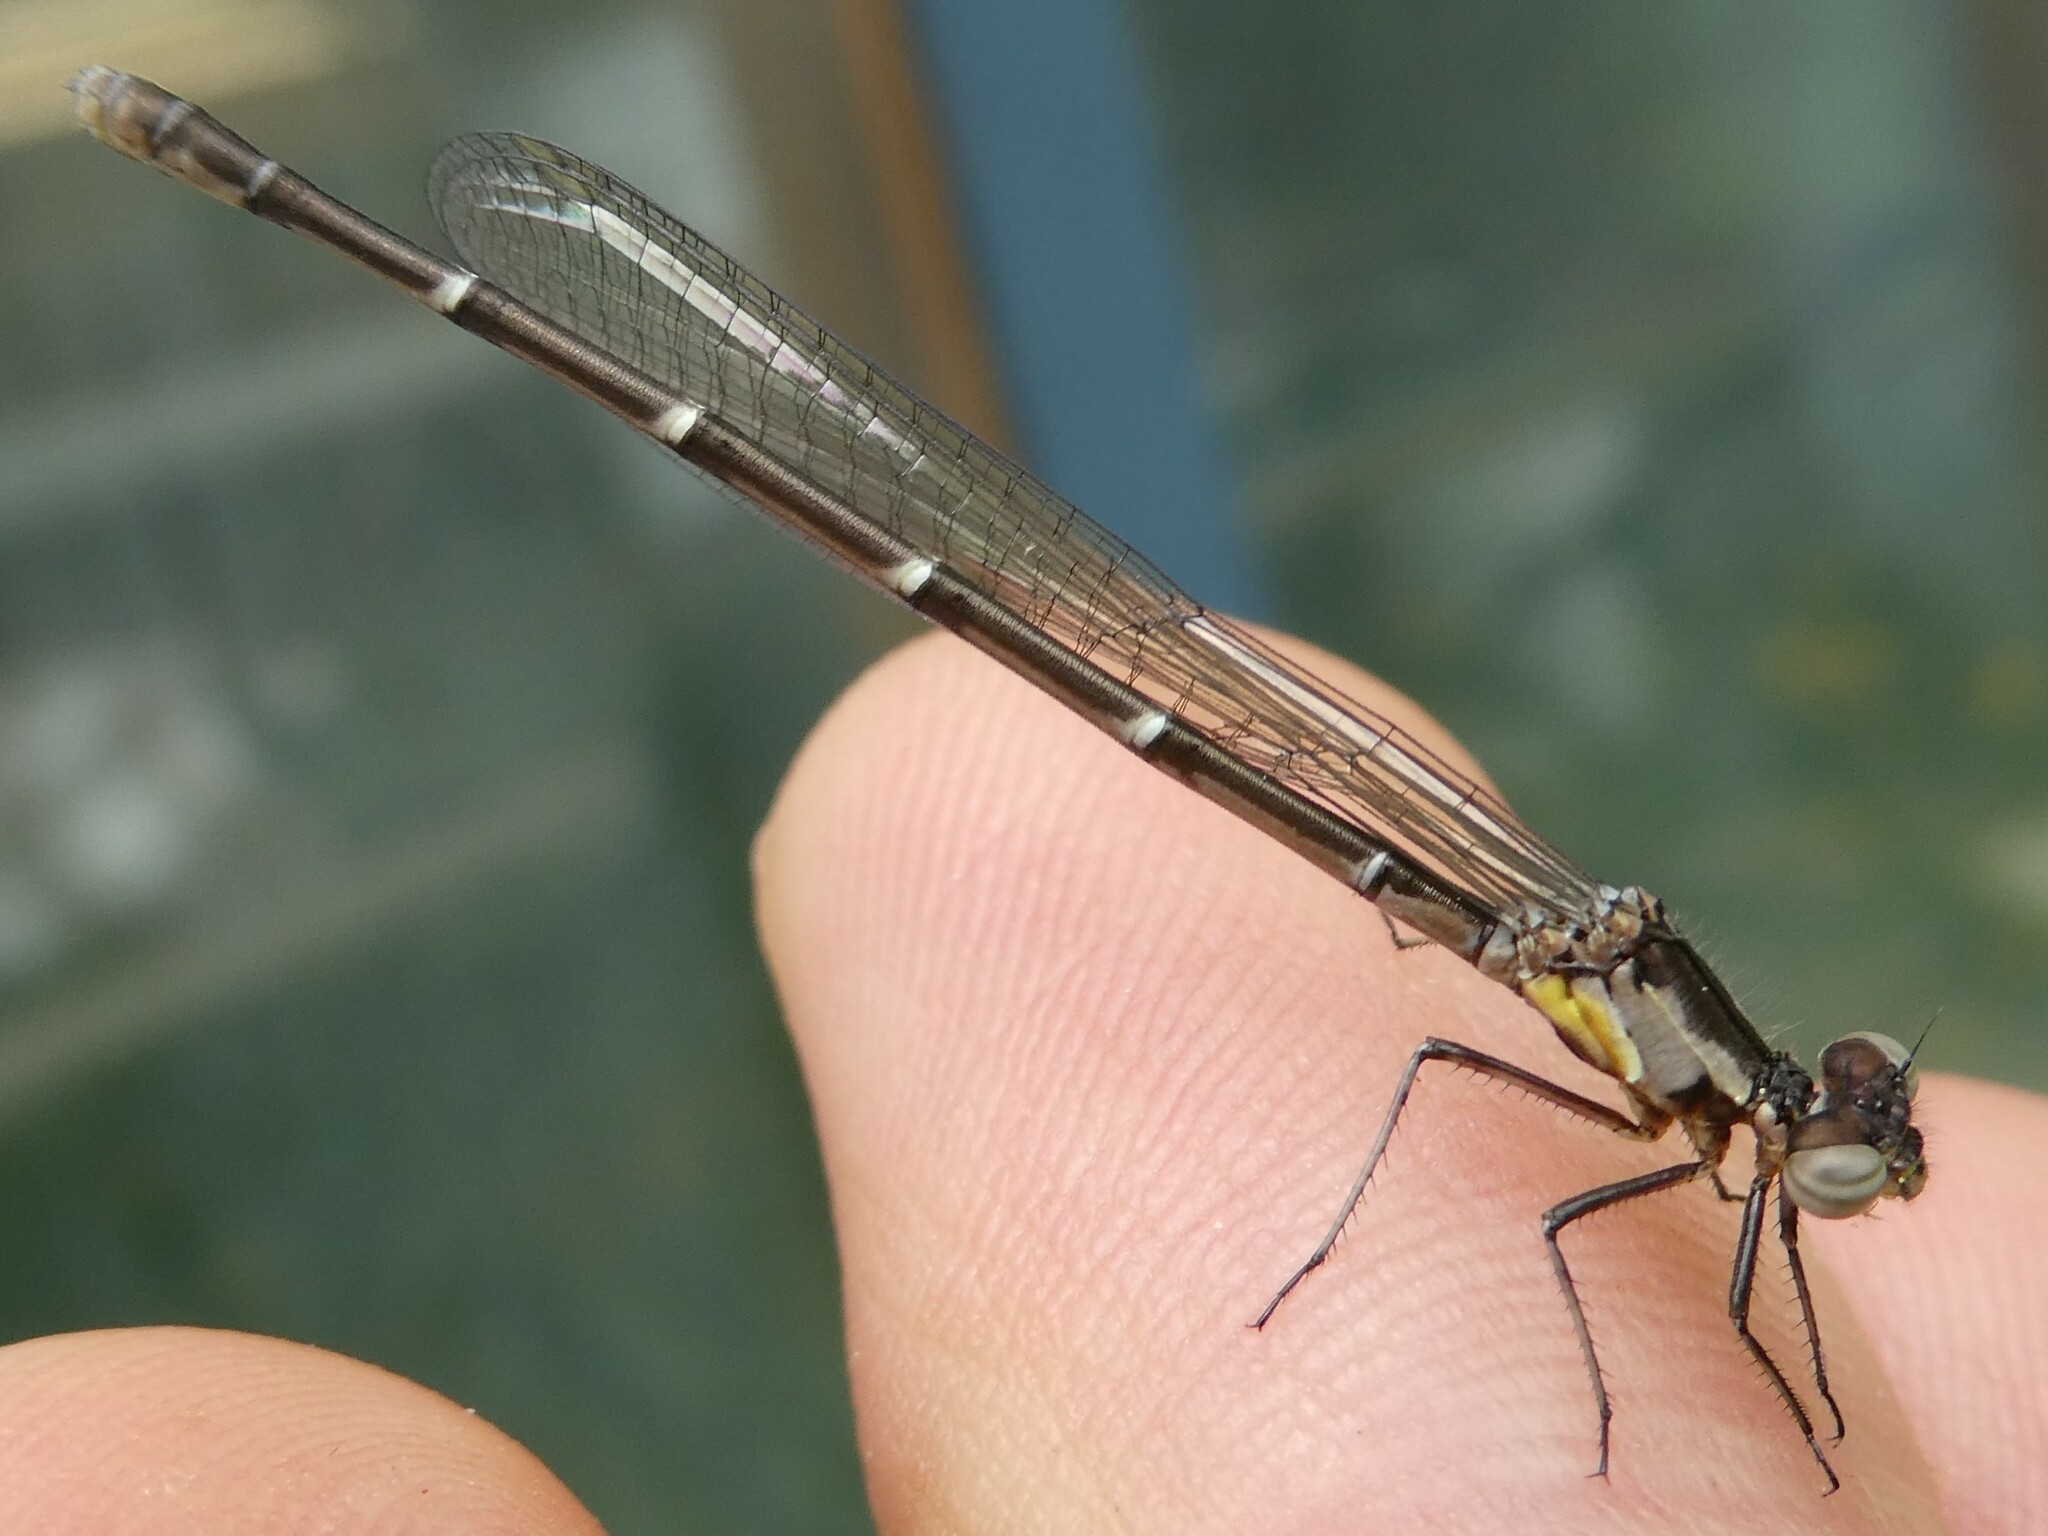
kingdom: Animalia
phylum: Arthropoda
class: Insecta
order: Odonata
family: Coenagrionidae
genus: Chromagrion
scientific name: Chromagrion conditum
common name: Aurora damsel
